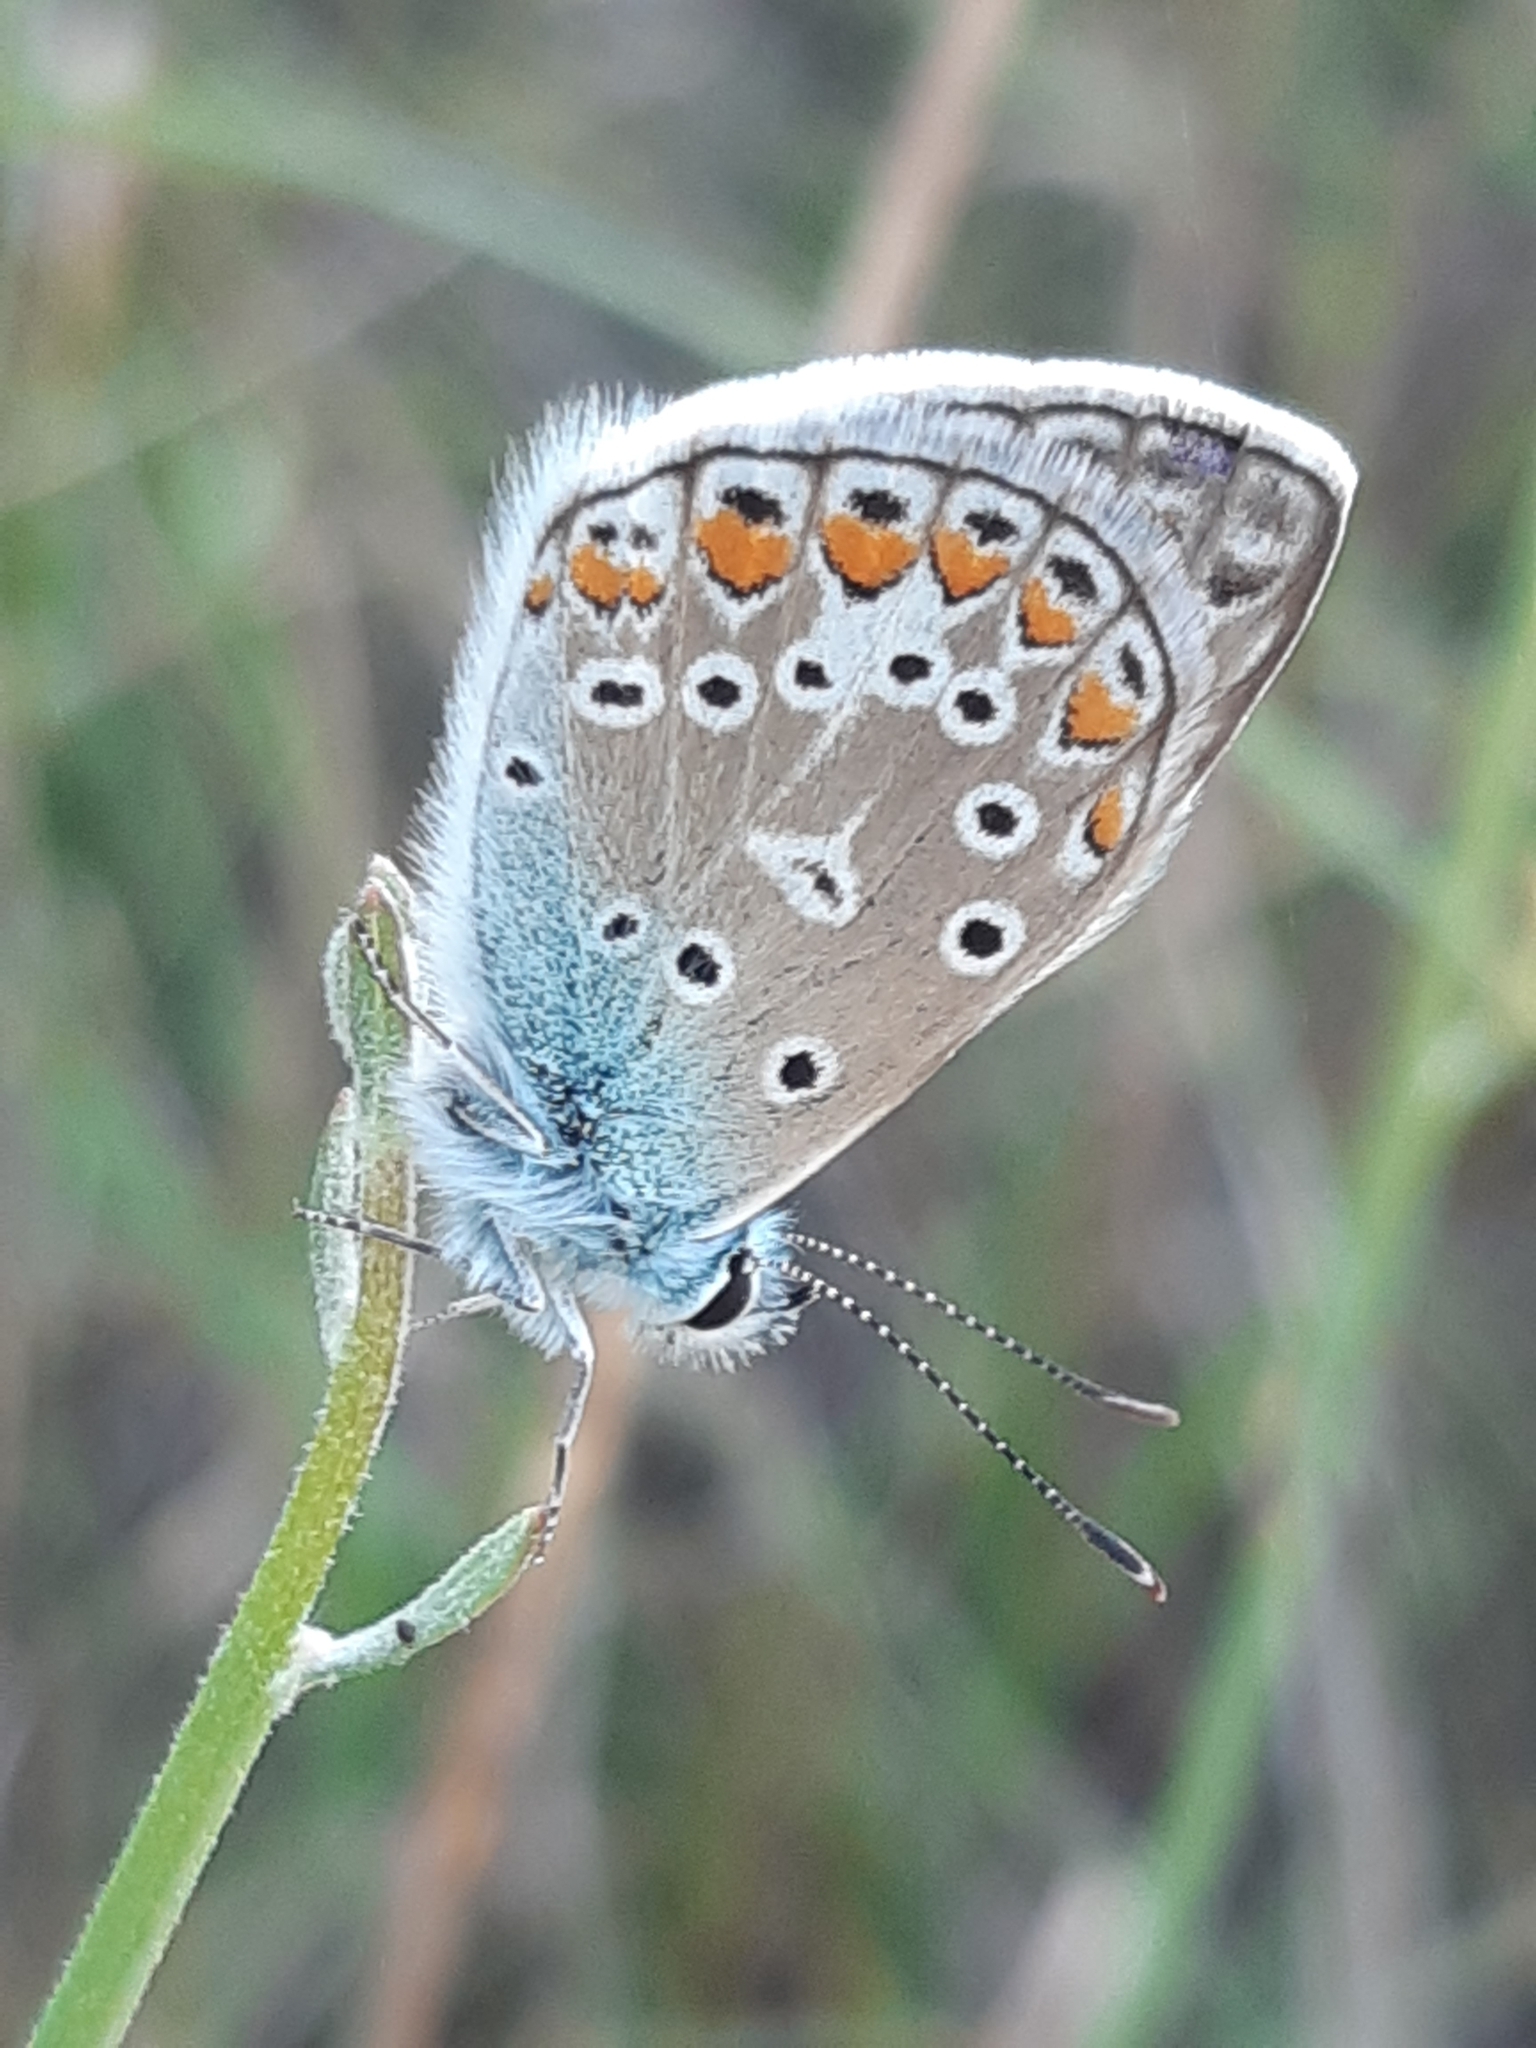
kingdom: Animalia
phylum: Arthropoda
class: Insecta
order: Lepidoptera
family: Lycaenidae
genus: Polyommatus
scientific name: Polyommatus icarus
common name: Common blue
